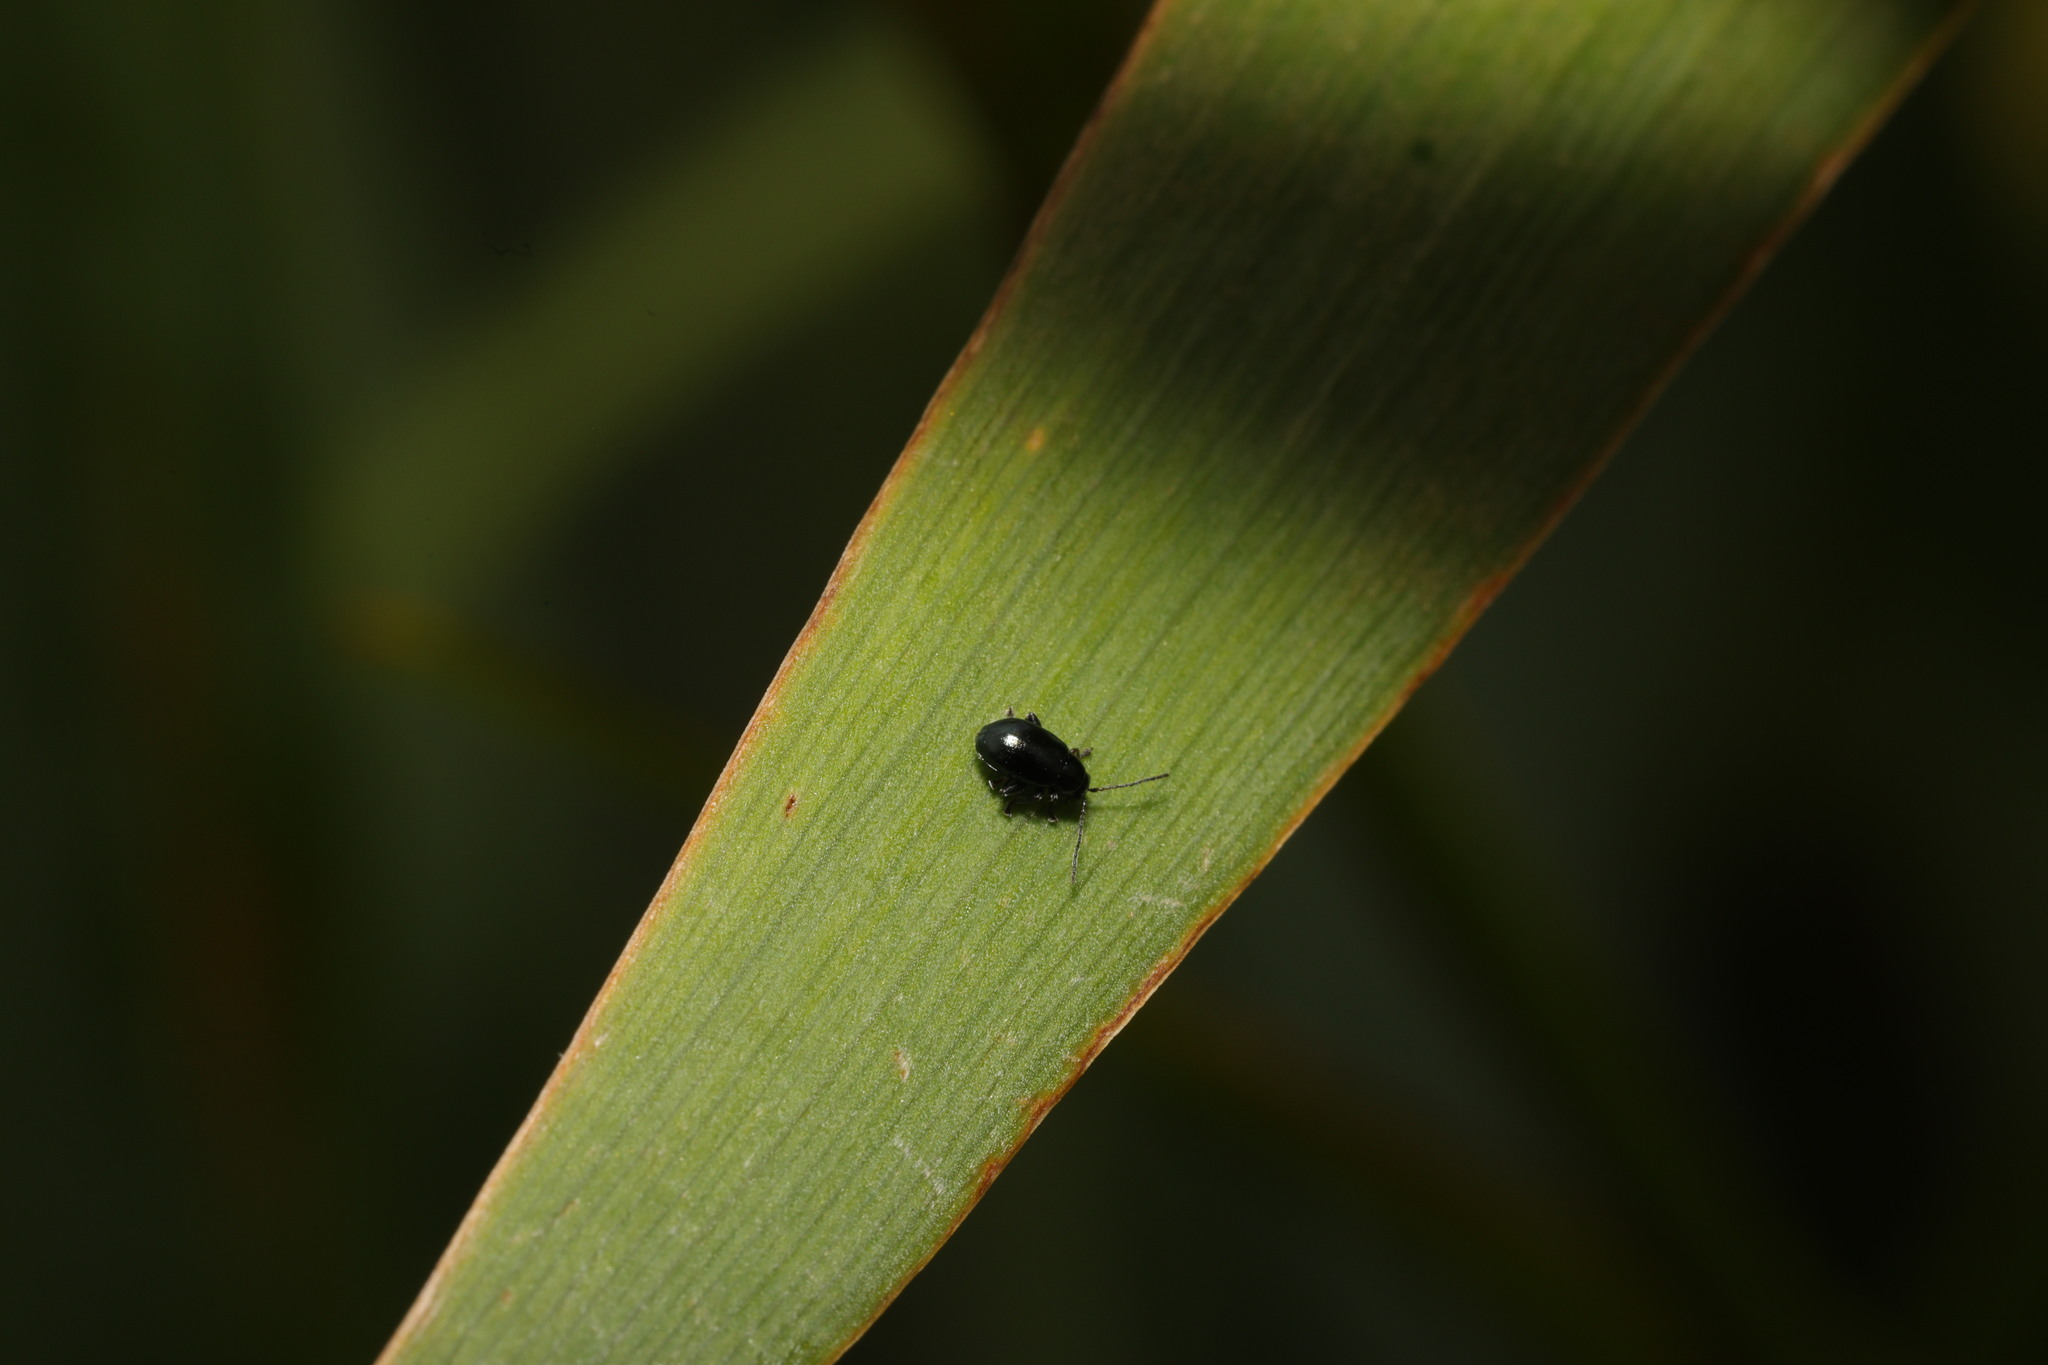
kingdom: Animalia
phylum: Arthropoda
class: Insecta
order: Coleoptera
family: Chrysomelidae
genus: Aphthona
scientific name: Aphthona nonstriata
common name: Iris flea beetle
